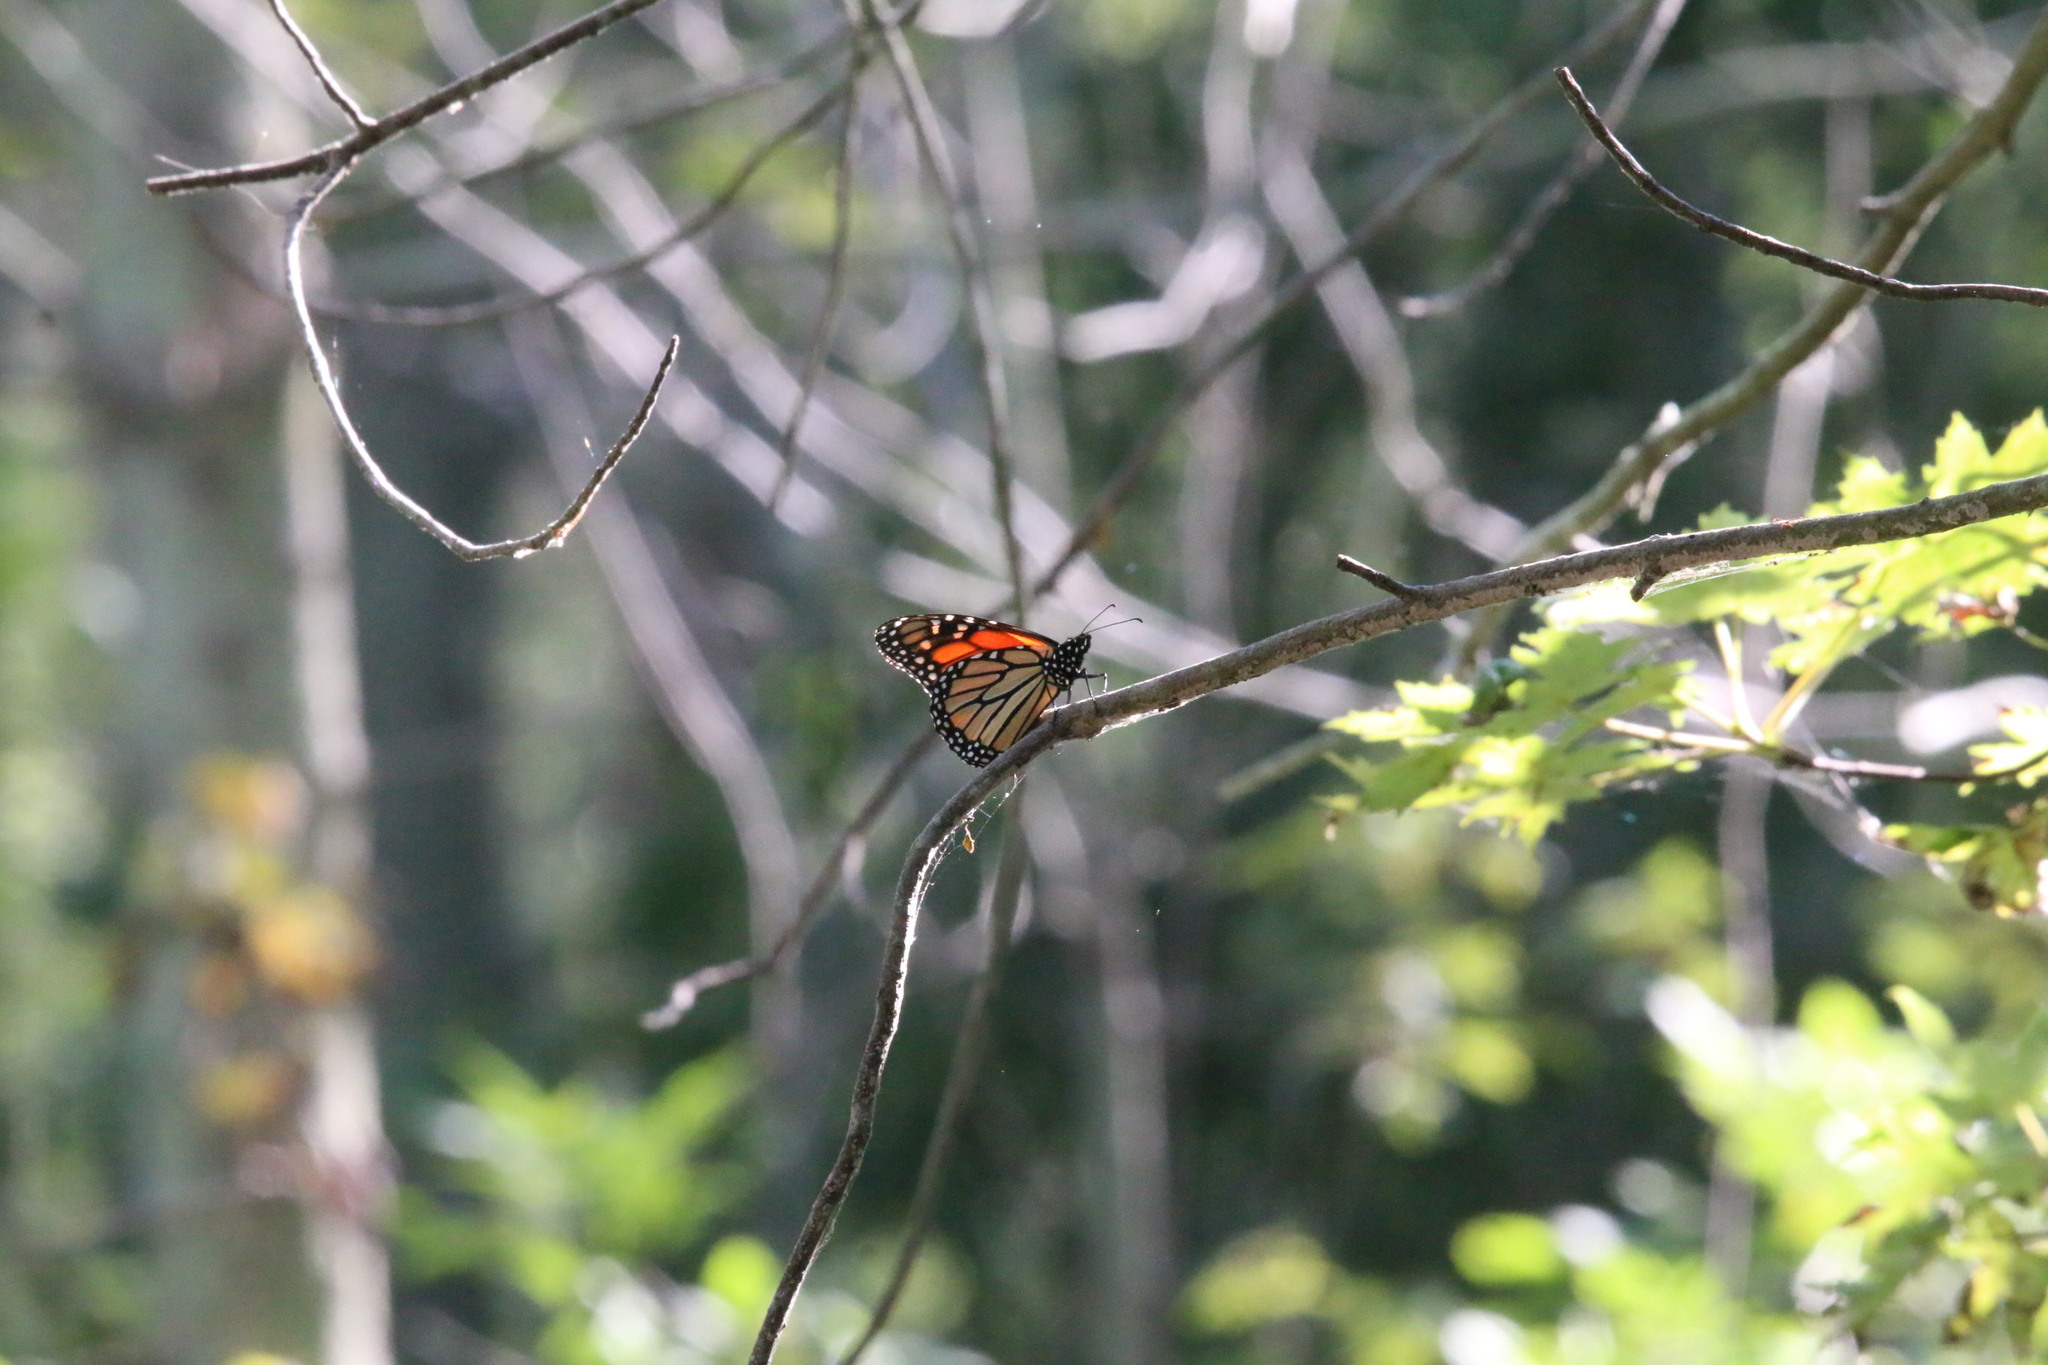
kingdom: Animalia
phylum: Arthropoda
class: Insecta
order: Lepidoptera
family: Nymphalidae
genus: Danaus
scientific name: Danaus plexippus
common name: Monarch
